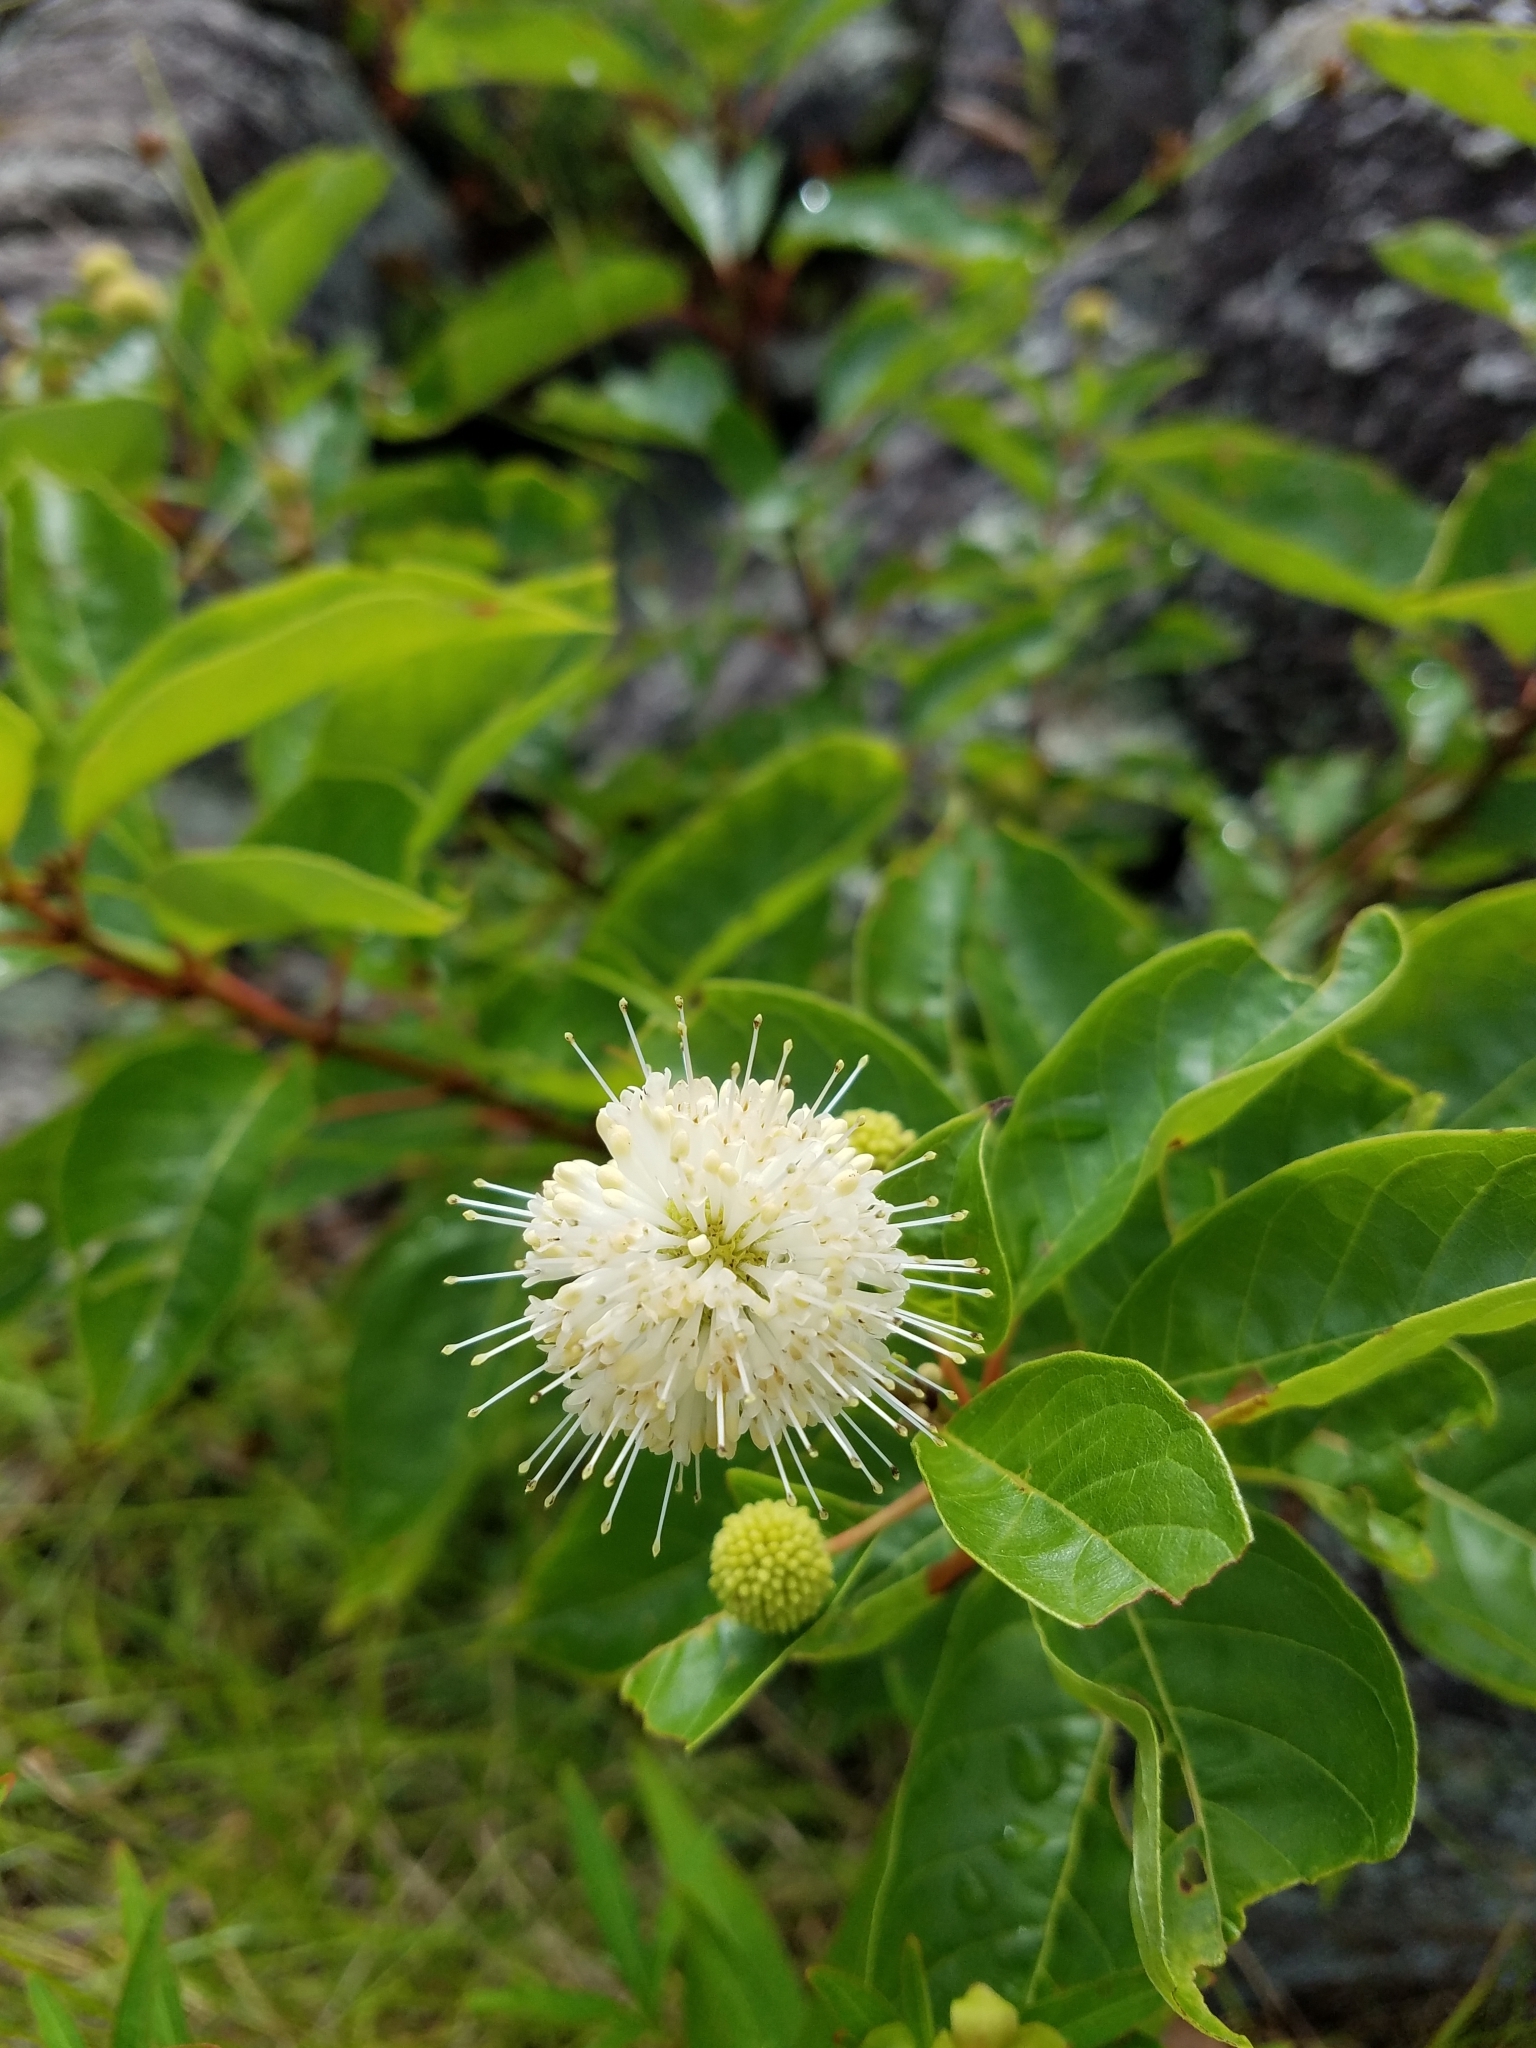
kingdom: Plantae
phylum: Tracheophyta
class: Magnoliopsida
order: Gentianales
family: Rubiaceae
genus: Cephalanthus
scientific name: Cephalanthus occidentalis
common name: Button-willow
